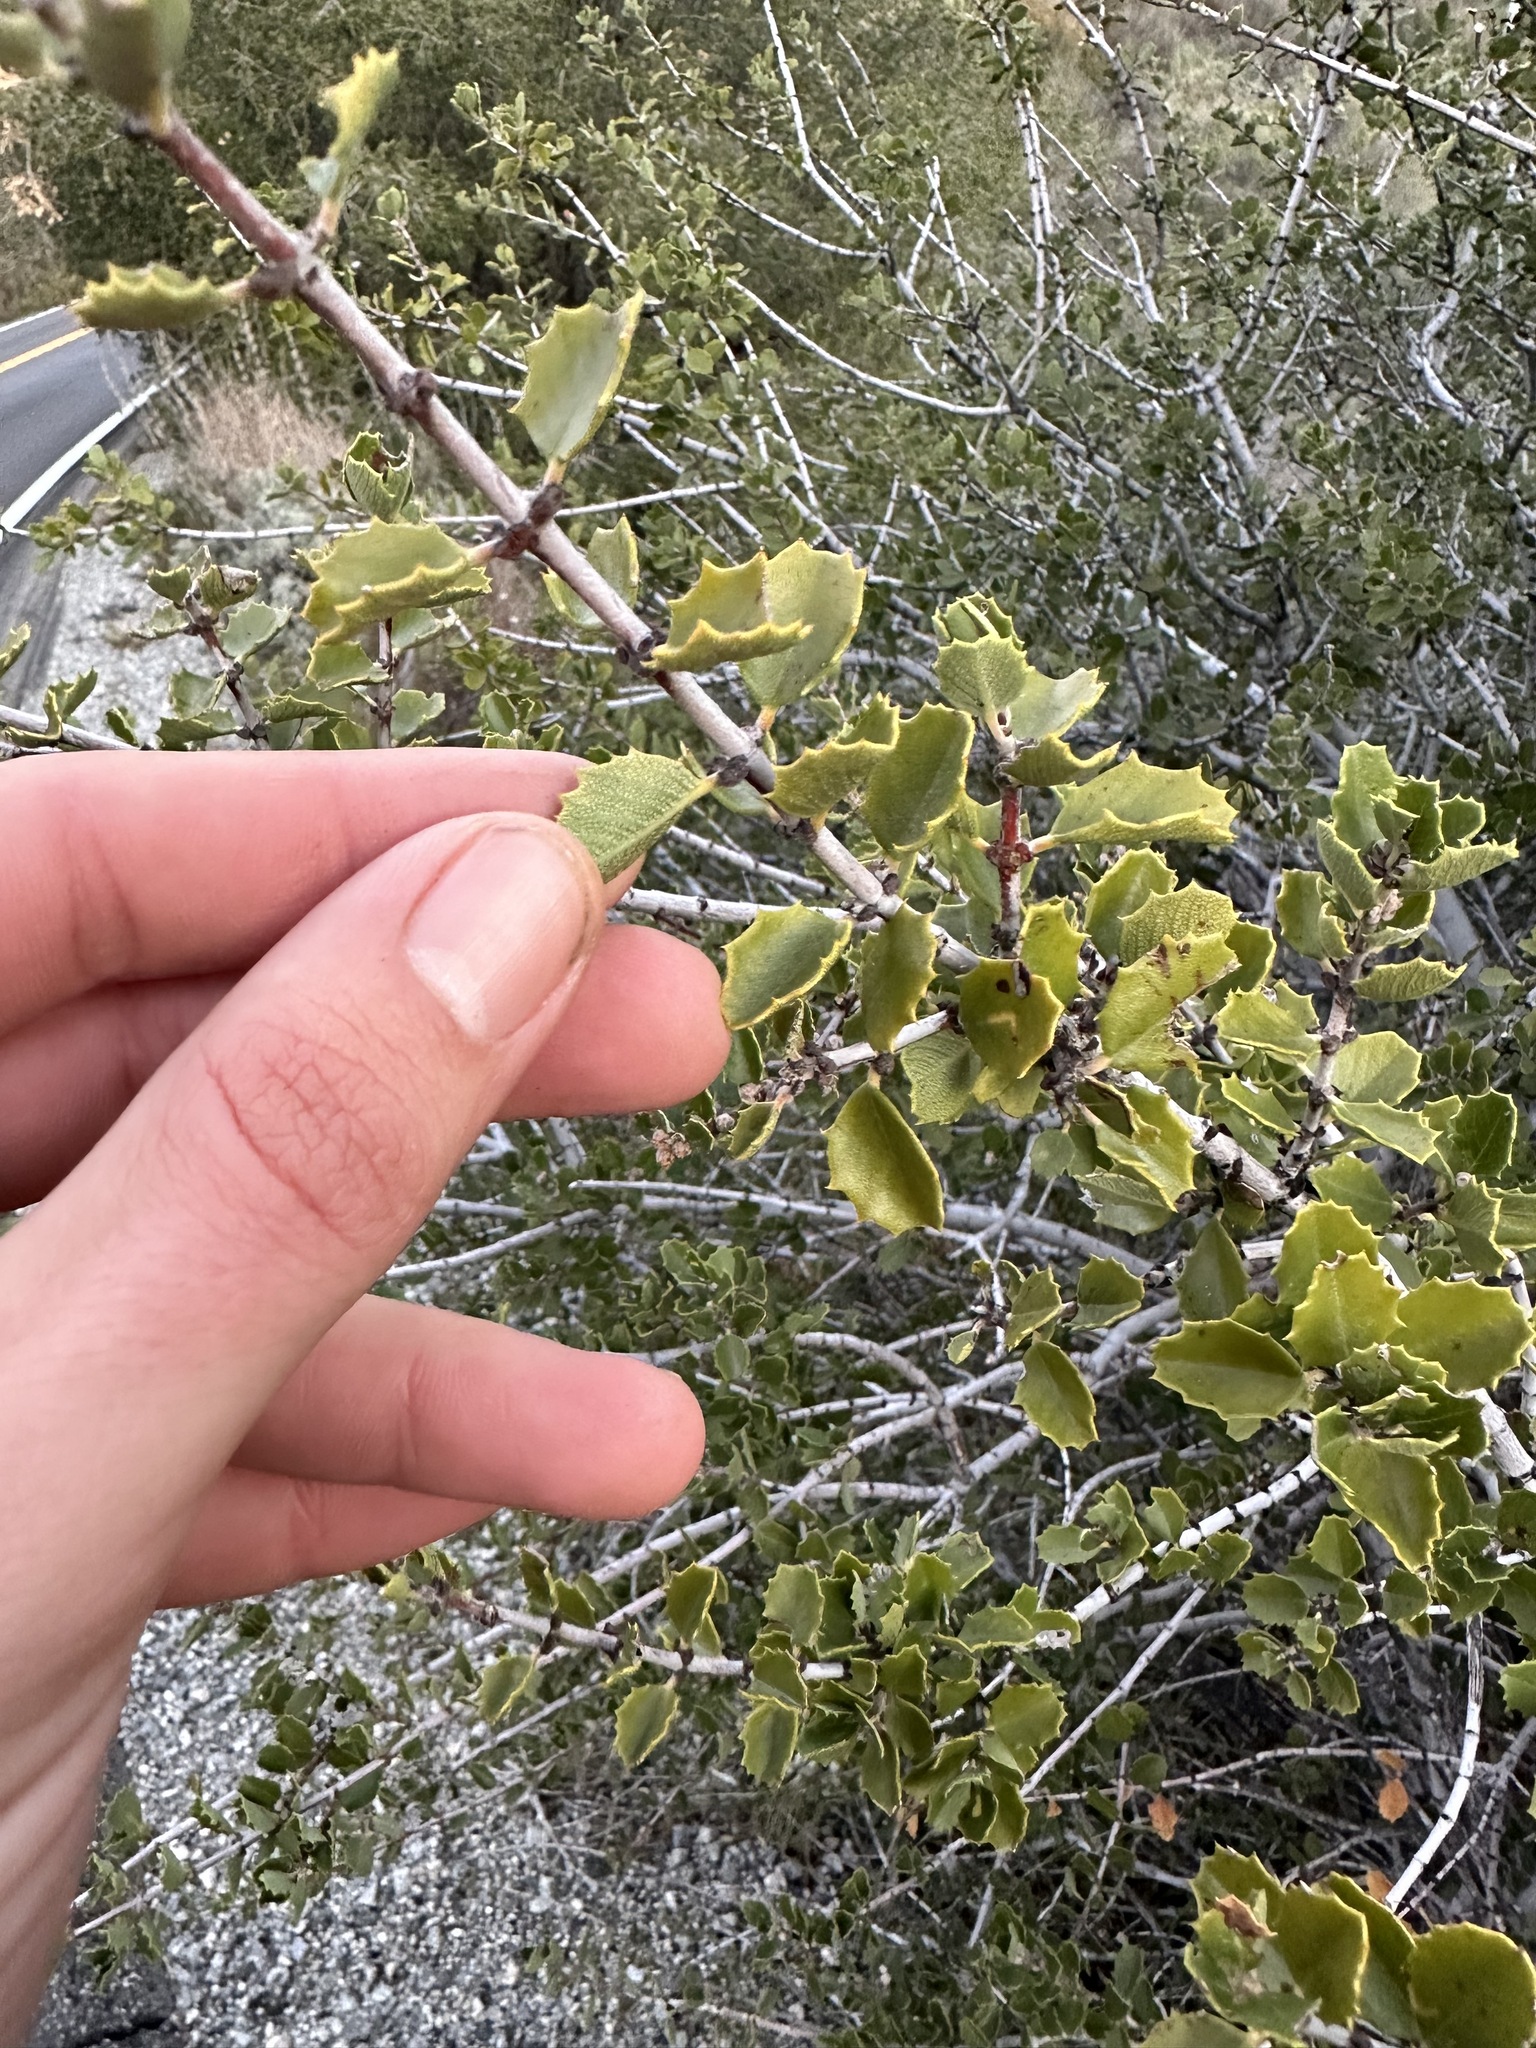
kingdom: Plantae
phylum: Tracheophyta
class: Magnoliopsida
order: Rosales
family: Rhamnaceae
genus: Ceanothus
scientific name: Ceanothus perplexans
